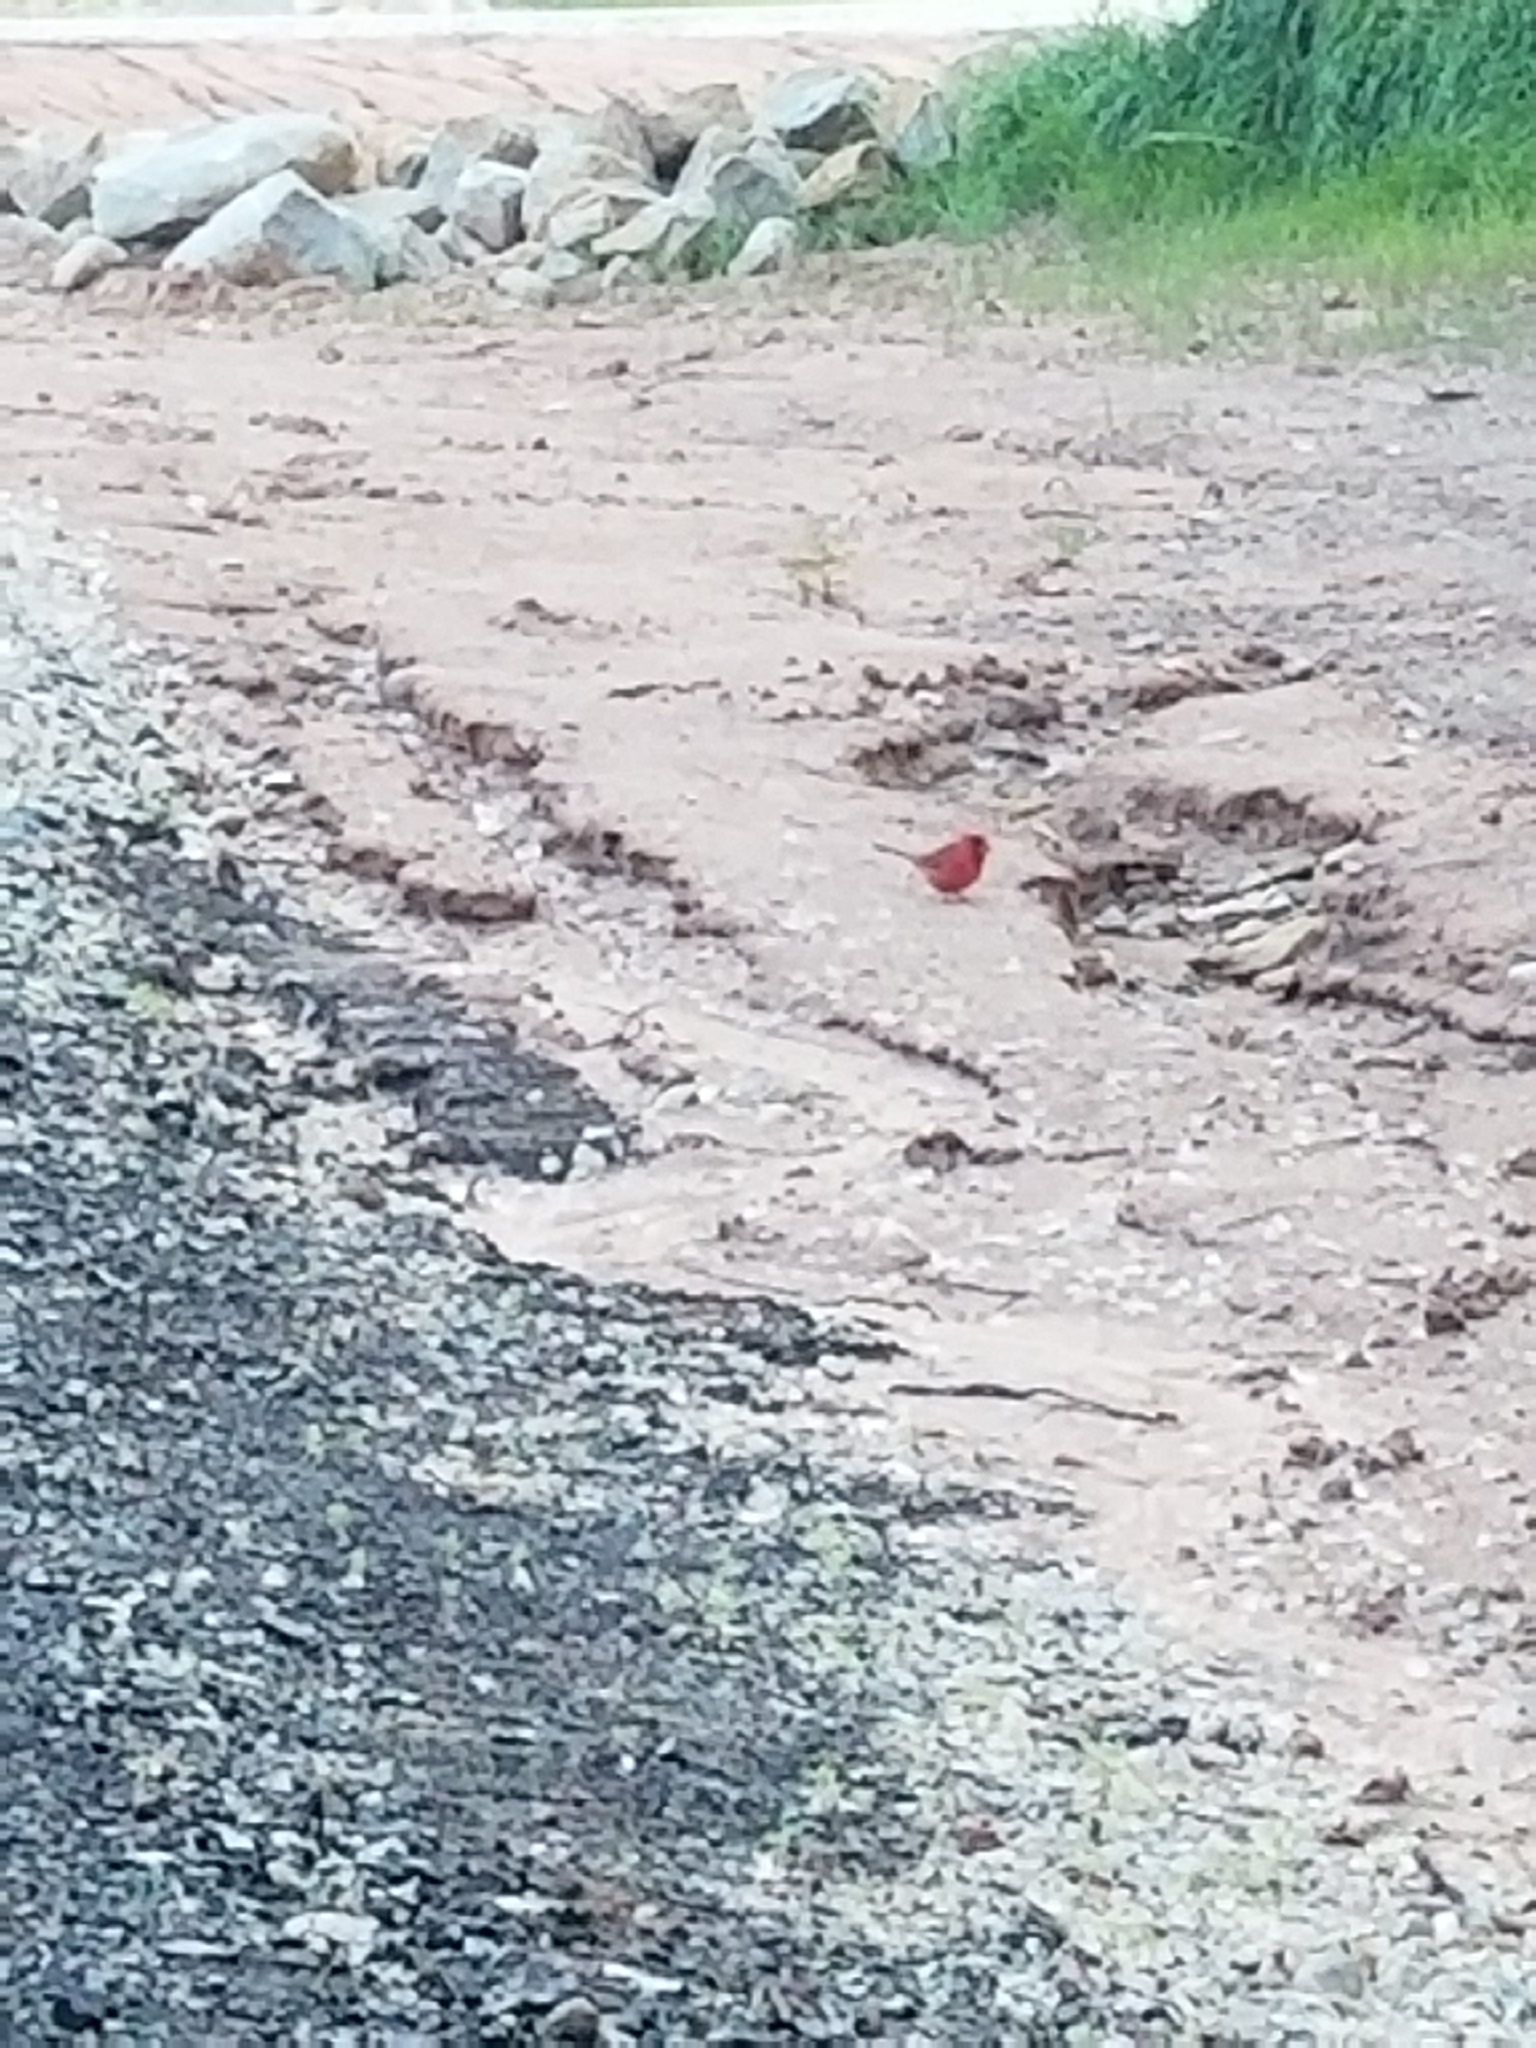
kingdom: Animalia
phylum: Chordata
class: Aves
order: Passeriformes
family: Cardinalidae
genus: Cardinalis
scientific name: Cardinalis cardinalis
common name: Northern cardinal
